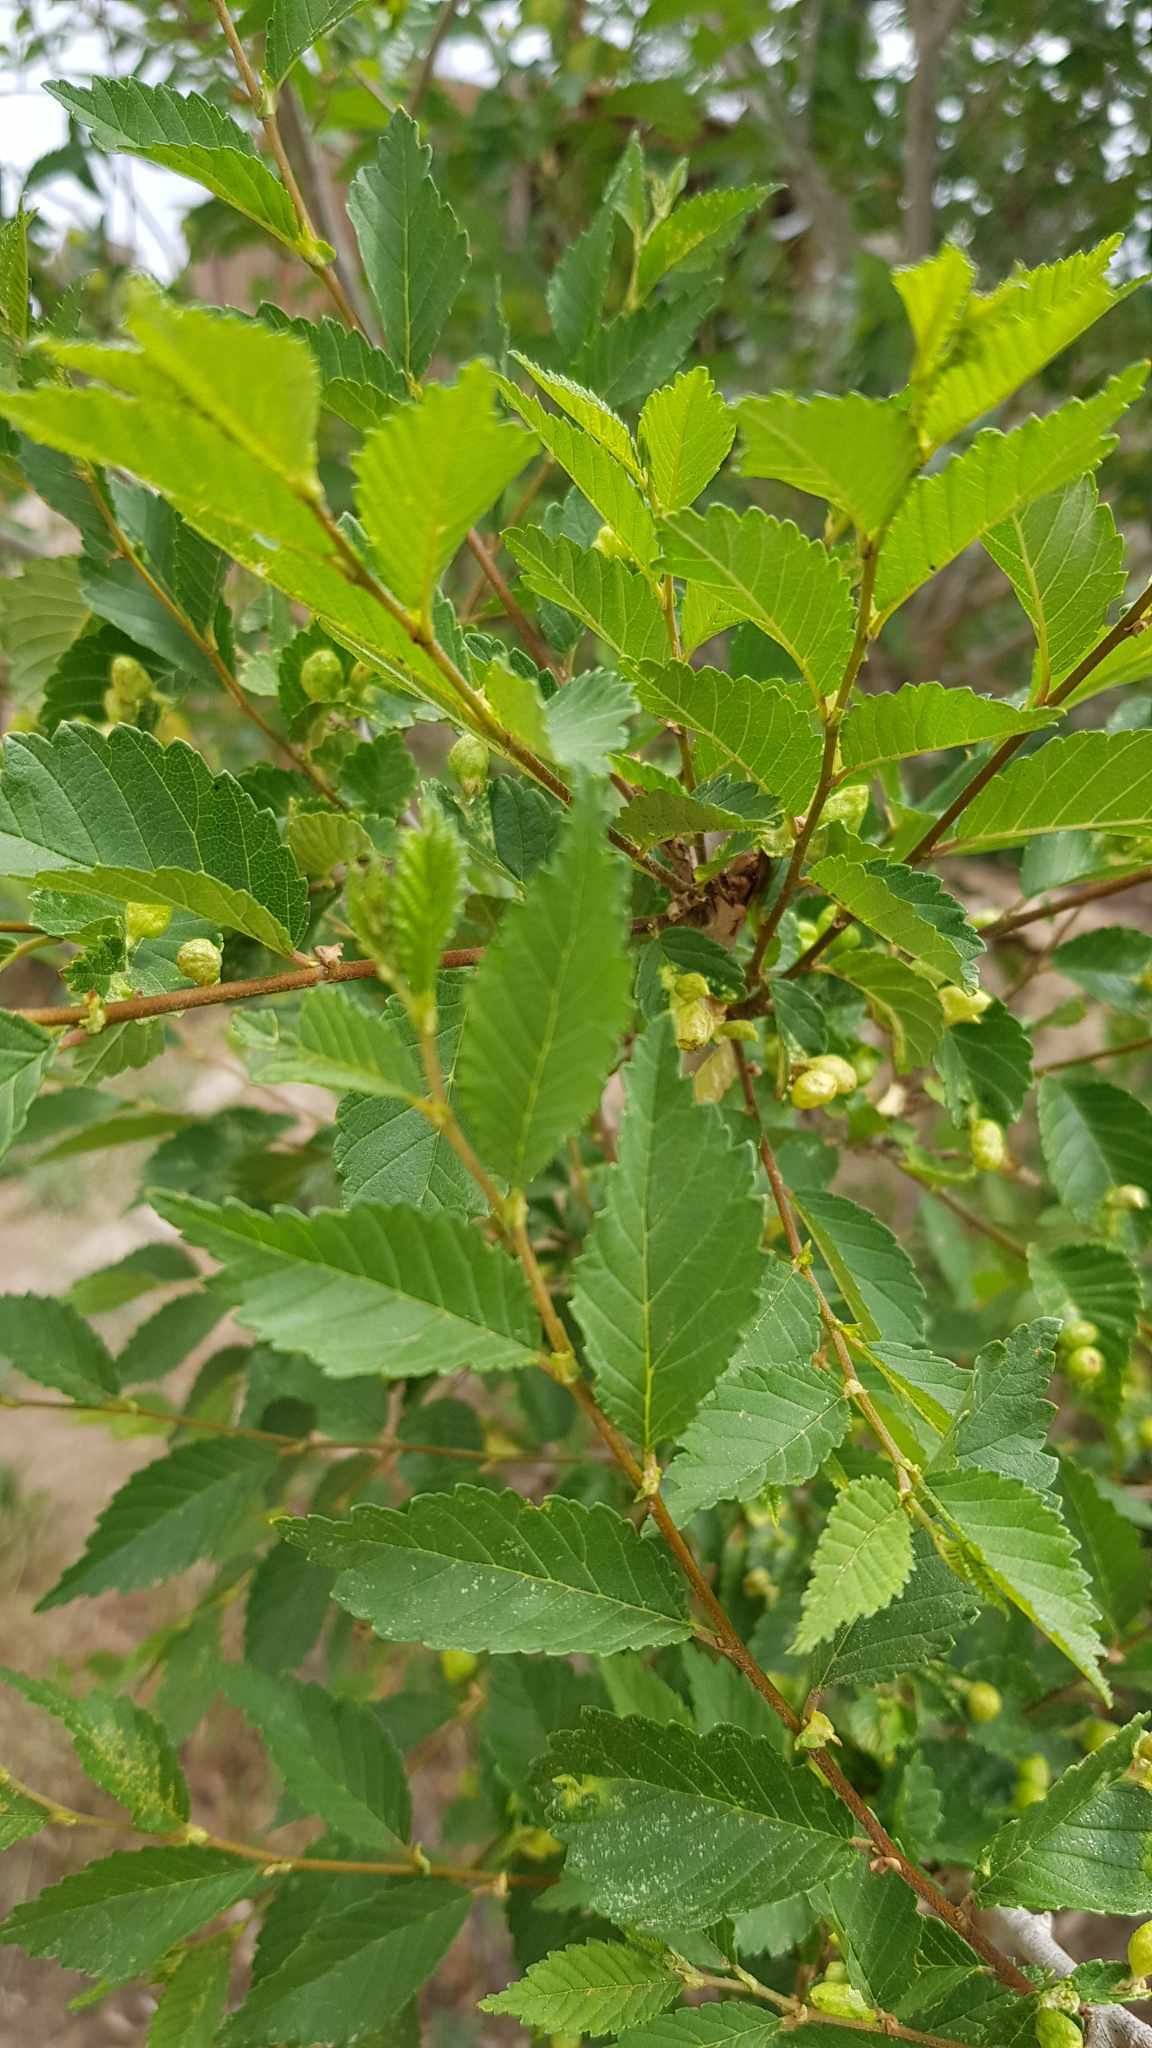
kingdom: Plantae
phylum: Tracheophyta
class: Magnoliopsida
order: Rosales
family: Ulmaceae
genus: Ulmus
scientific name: Ulmus pumila
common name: Siberian elm
